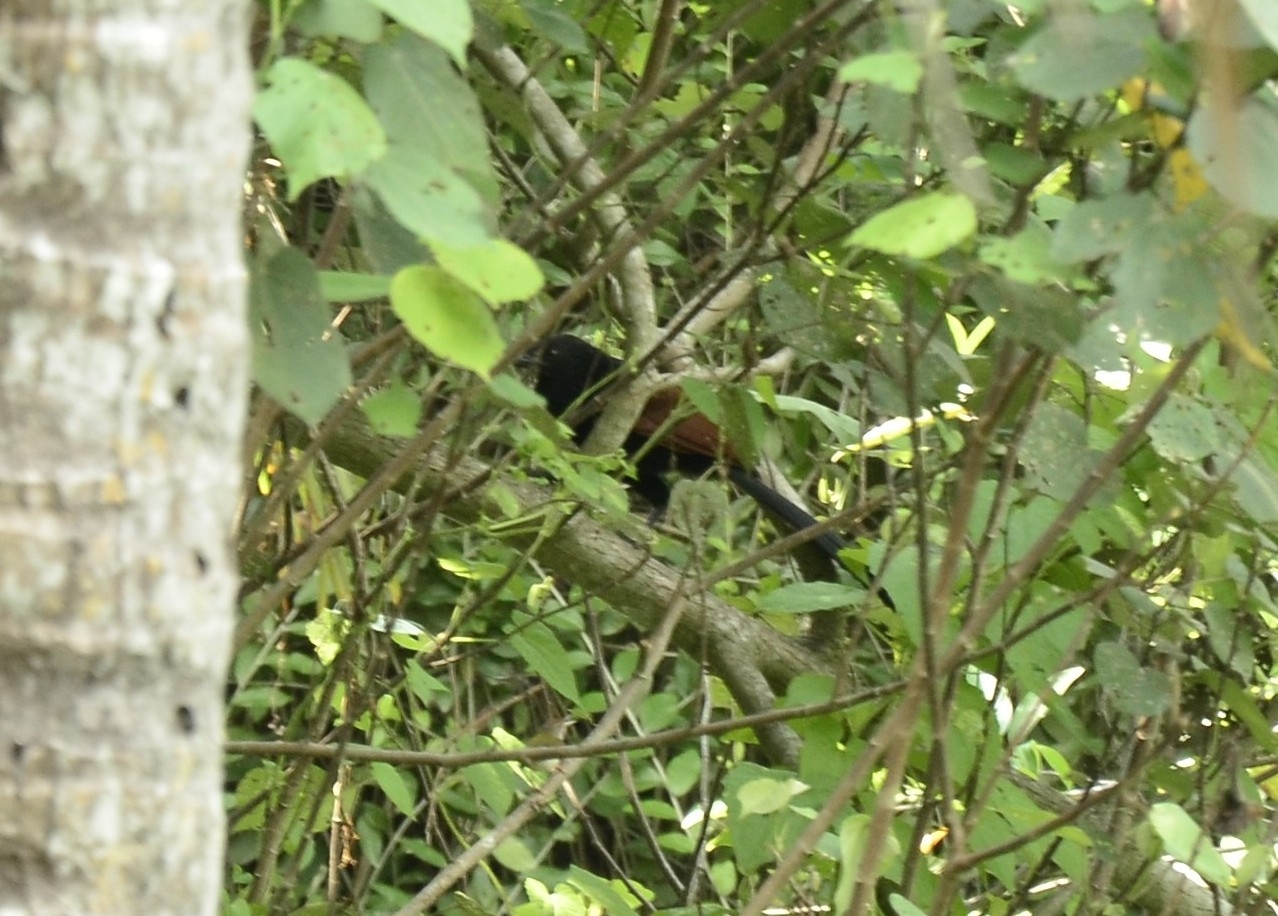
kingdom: Animalia
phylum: Chordata
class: Aves
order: Cuculiformes
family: Cuculidae
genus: Centropus
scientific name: Centropus sinensis
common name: Greater coucal
